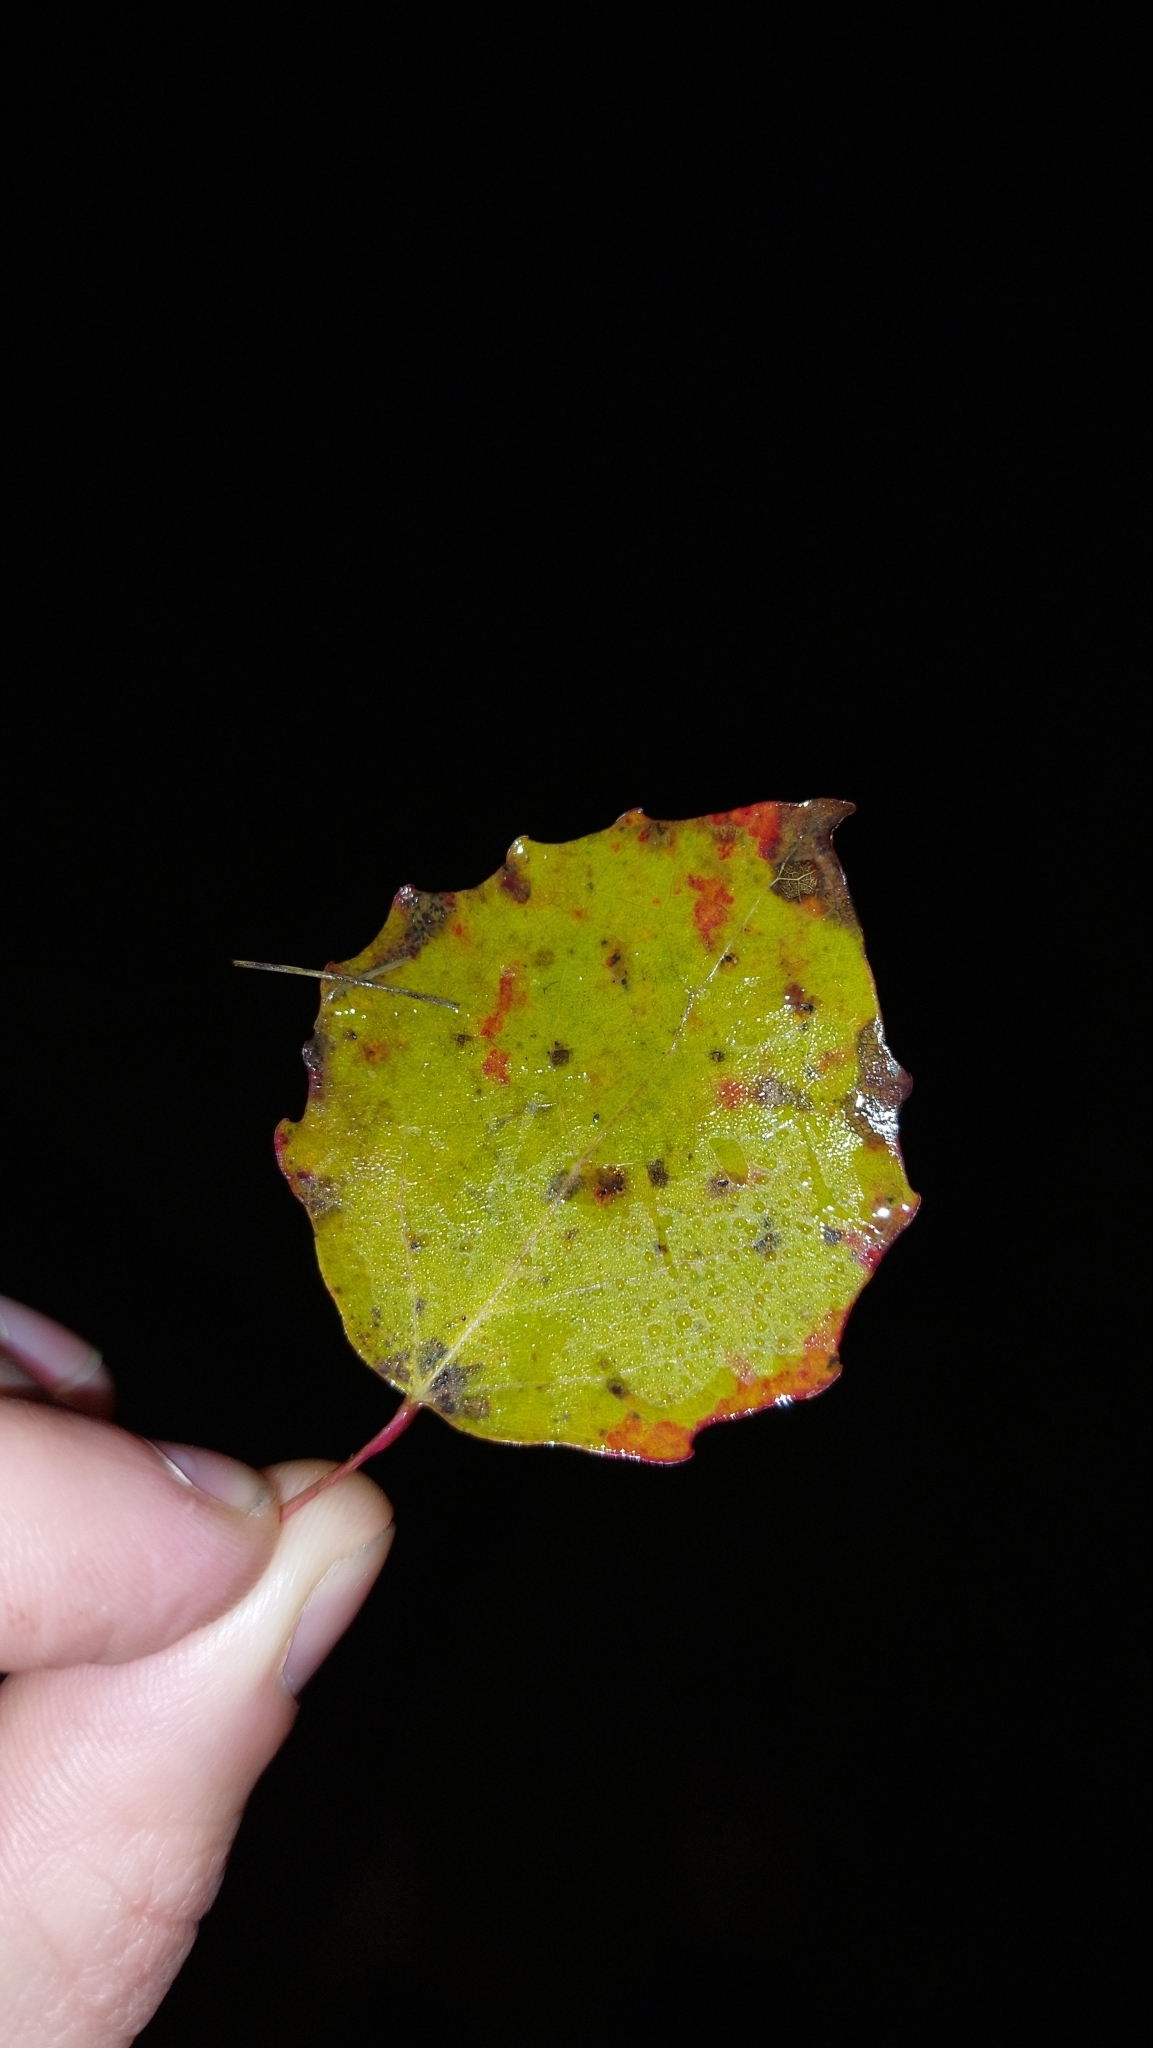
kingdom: Plantae
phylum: Tracheophyta
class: Magnoliopsida
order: Malpighiales
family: Salicaceae
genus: Populus
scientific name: Populus tremula
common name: European aspen
